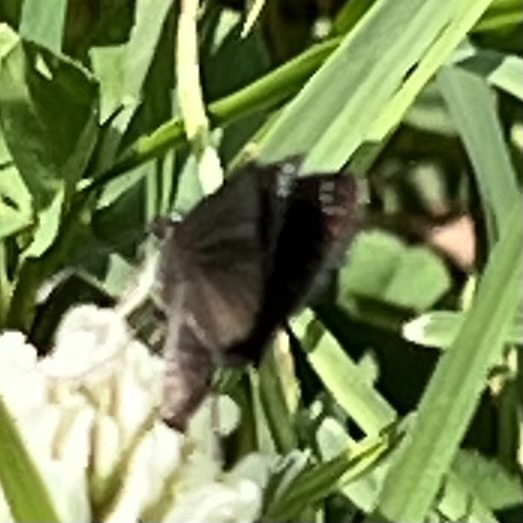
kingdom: Animalia
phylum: Arthropoda
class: Insecta
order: Lepidoptera
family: Hesperiidae
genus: Pholisora
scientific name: Pholisora catullus
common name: Common sootywing
